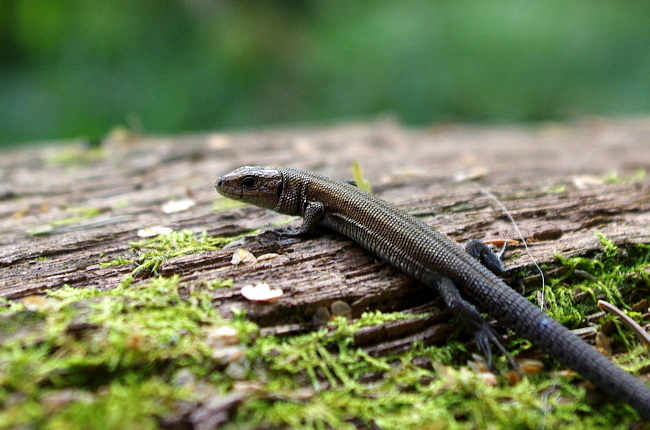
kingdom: Animalia
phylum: Chordata
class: Squamata
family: Lacertidae
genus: Zootoca
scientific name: Zootoca vivipara
